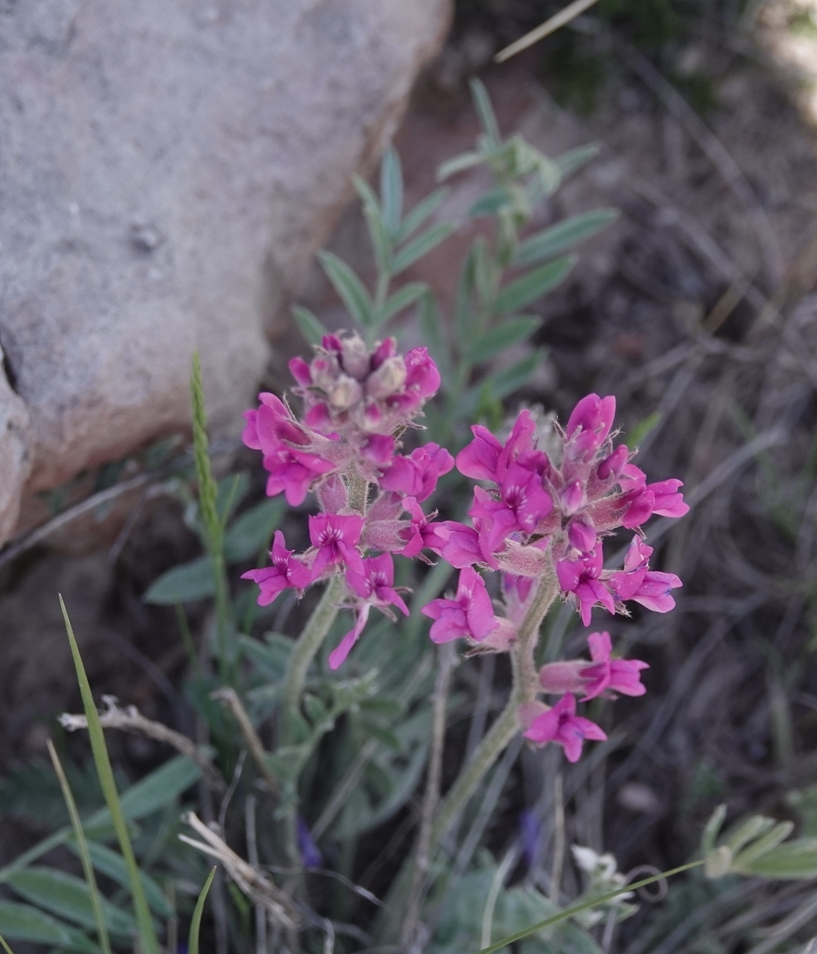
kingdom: Plantae
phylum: Tracheophyta
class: Magnoliopsida
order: Fabales
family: Fabaceae
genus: Oxytropis
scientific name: Oxytropis lambertii
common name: Purple locoweed
